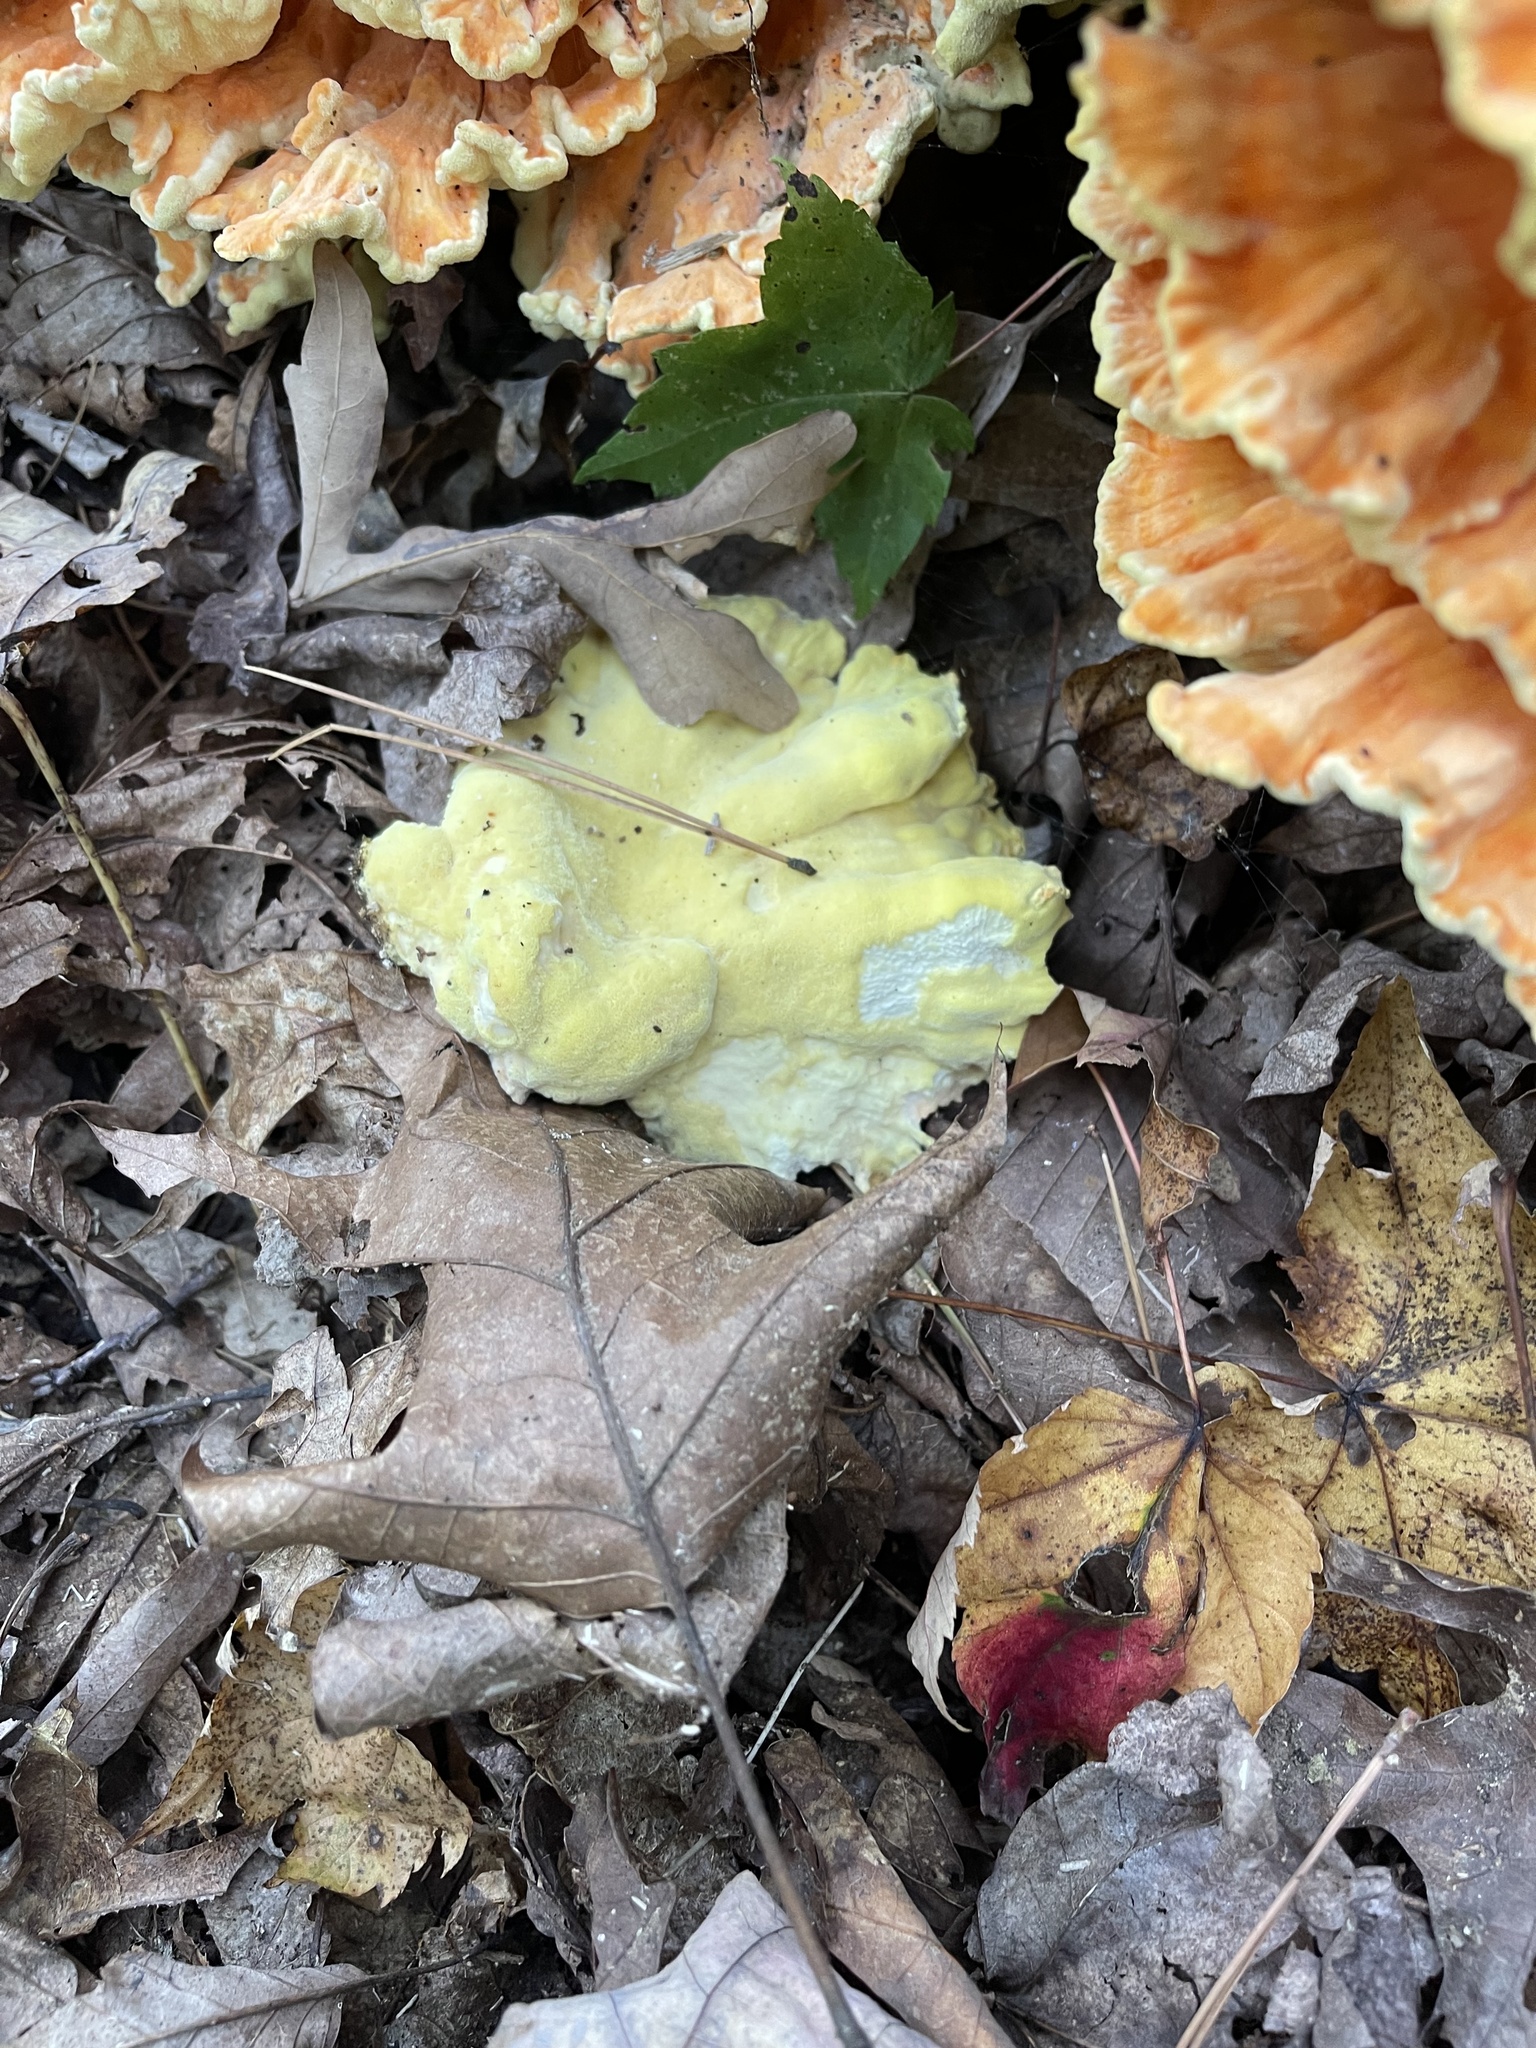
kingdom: Fungi
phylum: Basidiomycota
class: Agaricomycetes
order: Polyporales
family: Laetiporaceae
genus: Laetiporus
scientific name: Laetiporus sulphureus
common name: Chicken of the woods
